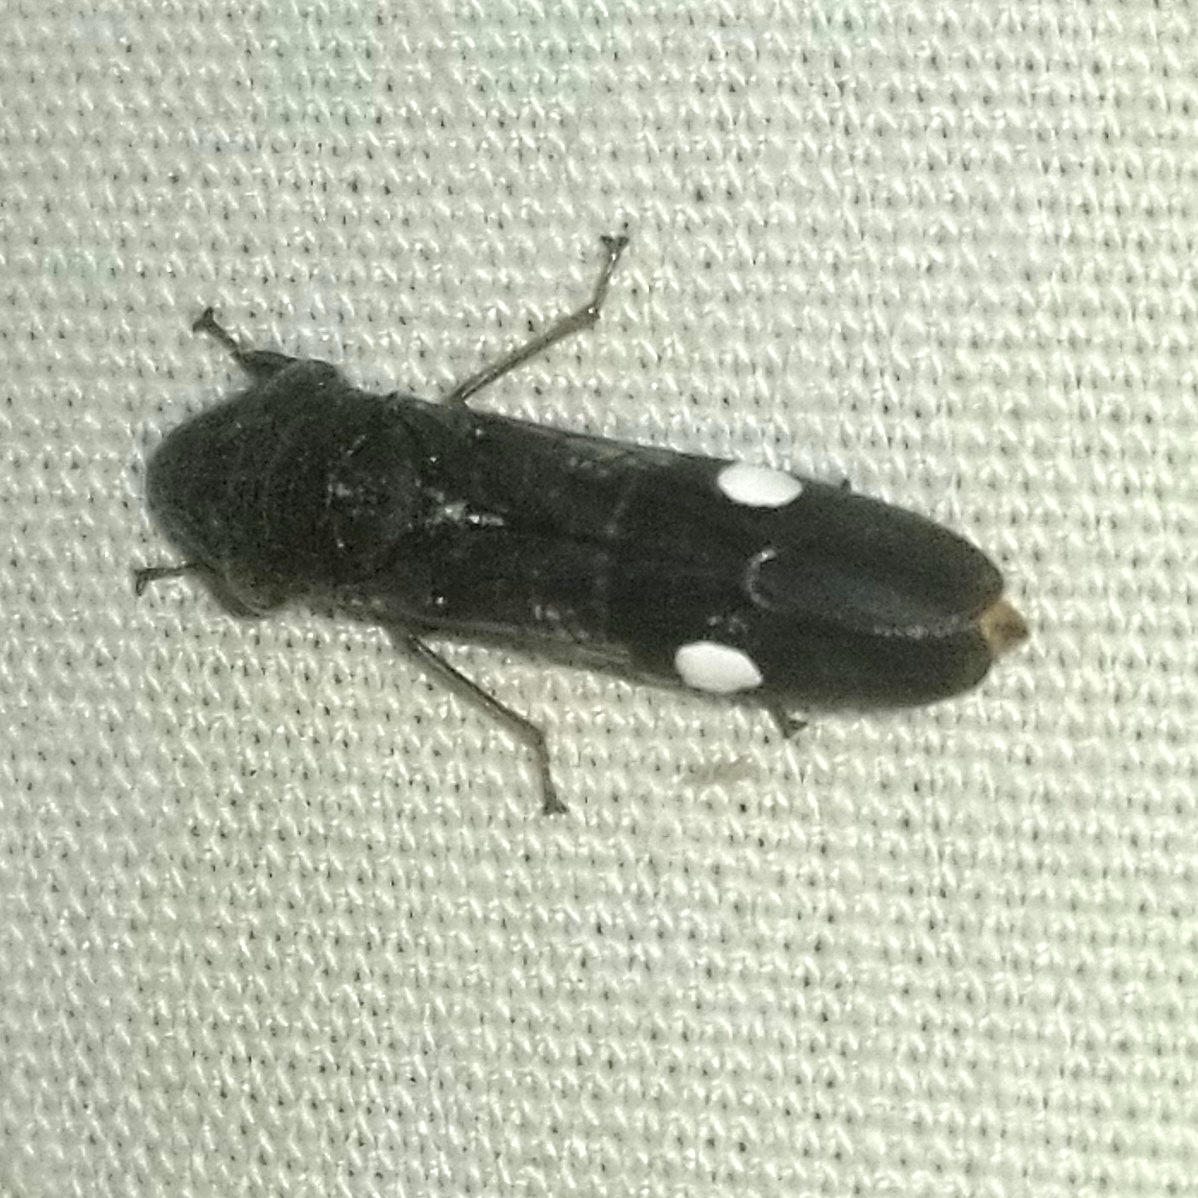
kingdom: Animalia
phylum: Arthropoda
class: Insecta
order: Hemiptera
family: Cicadellidae
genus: Homalodisca
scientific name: Homalodisca vitripennis
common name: Glassy-winged sharpshooter
